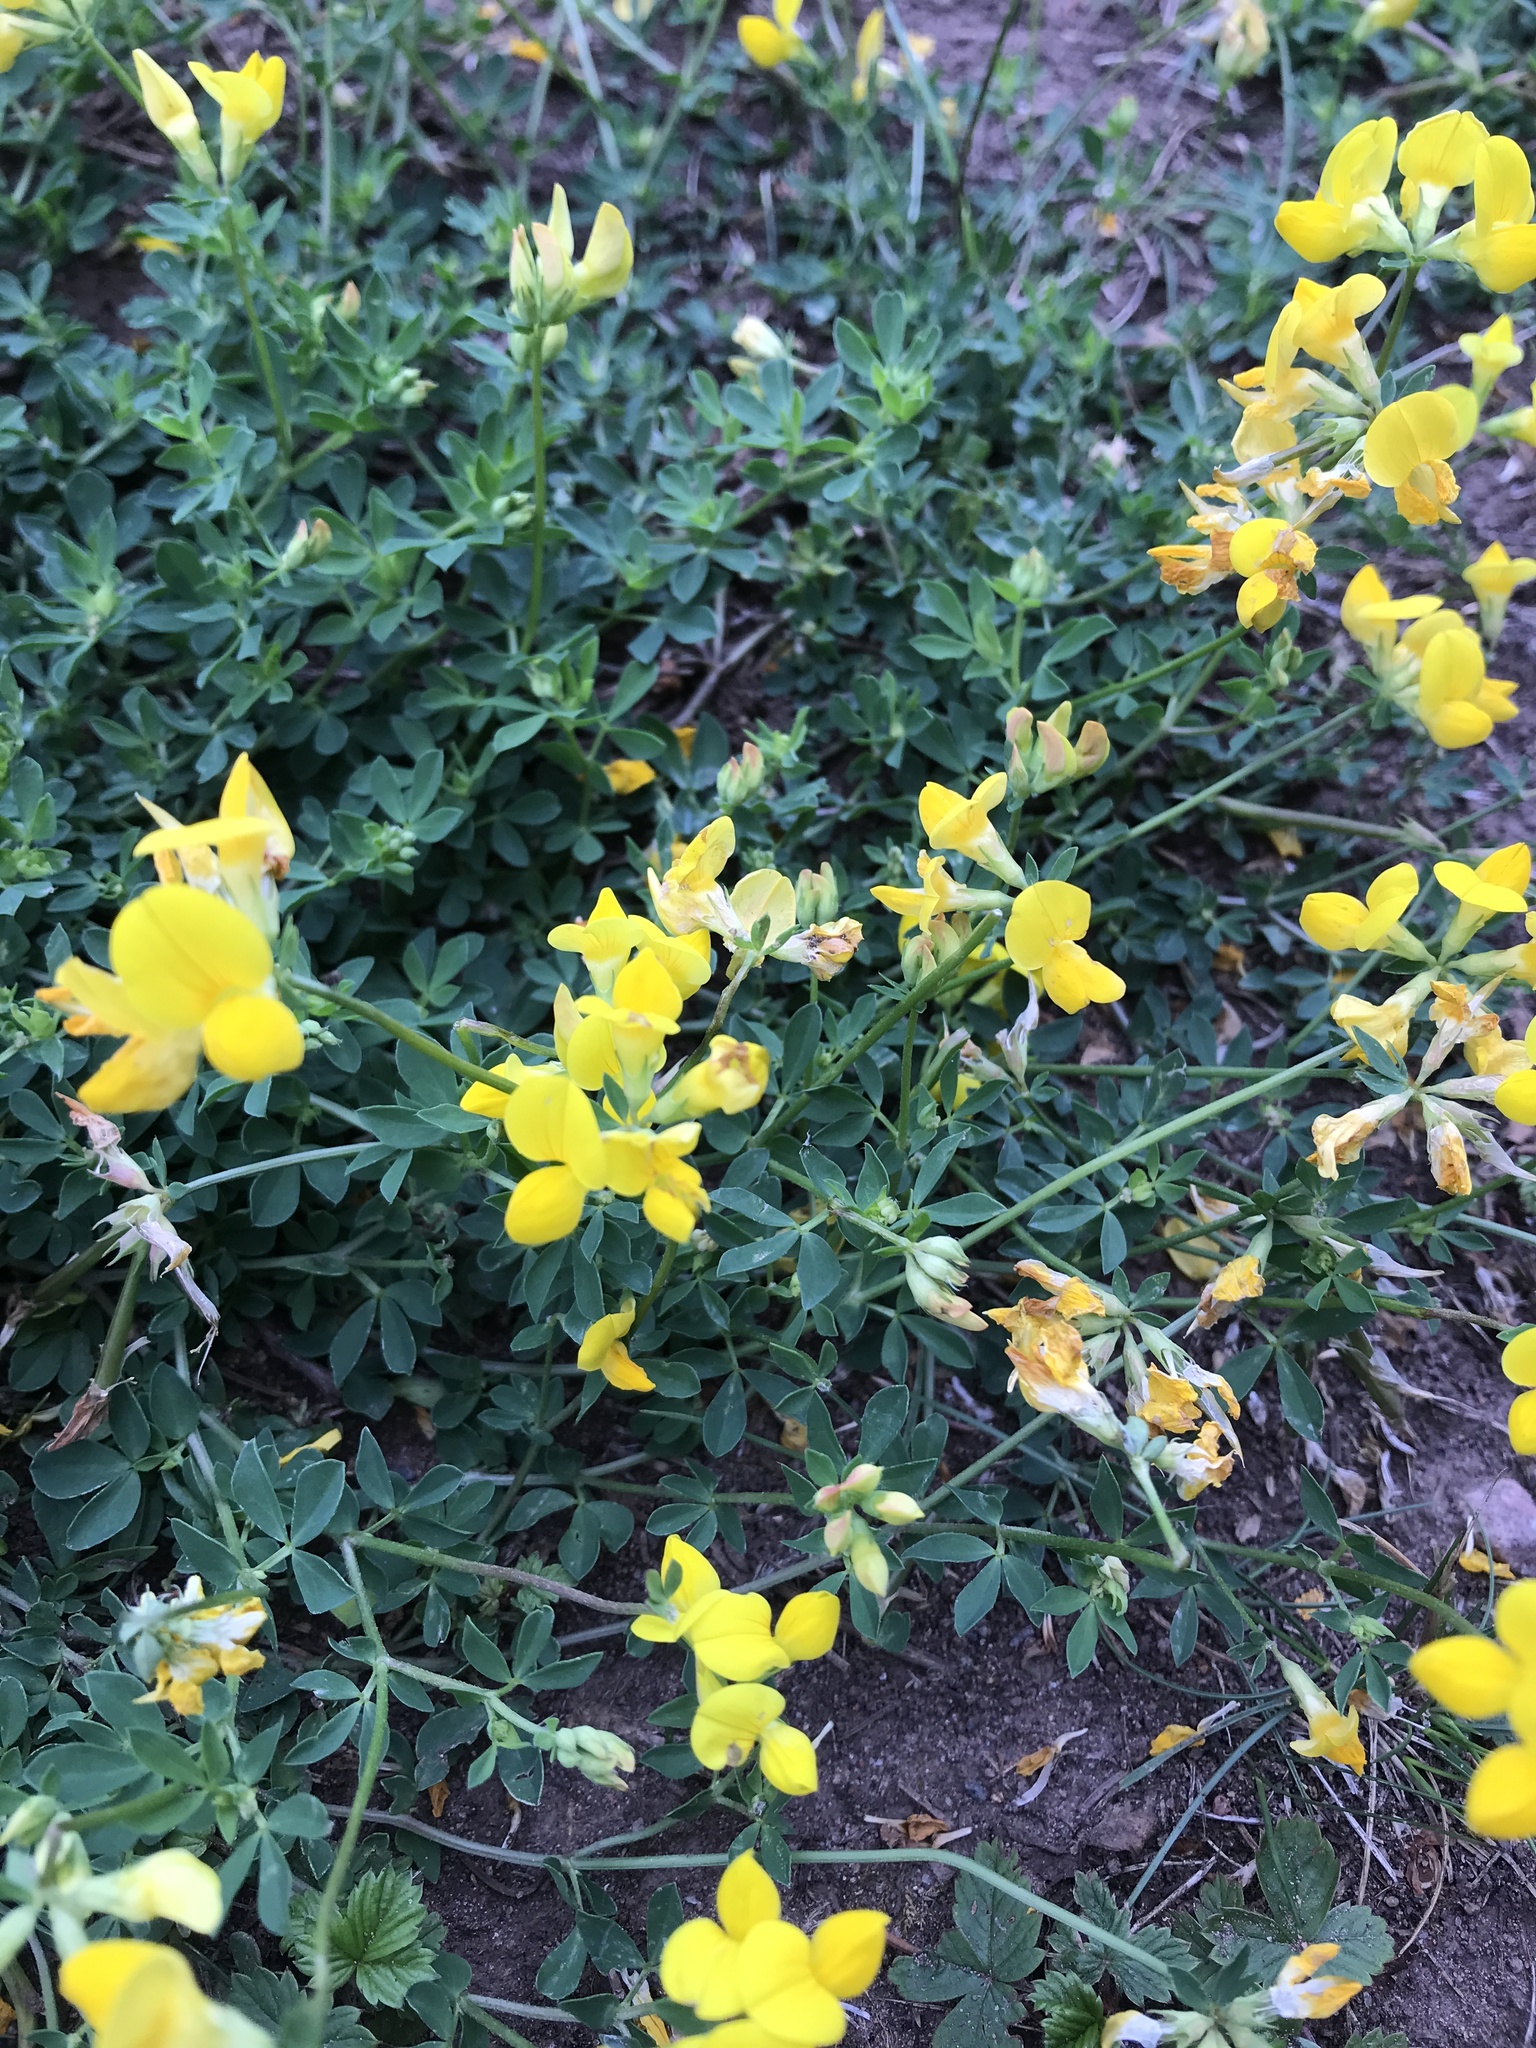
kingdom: Plantae
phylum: Tracheophyta
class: Magnoliopsida
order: Fabales
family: Fabaceae
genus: Lotus
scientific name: Lotus corniculatus
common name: Common bird's-foot-trefoil
